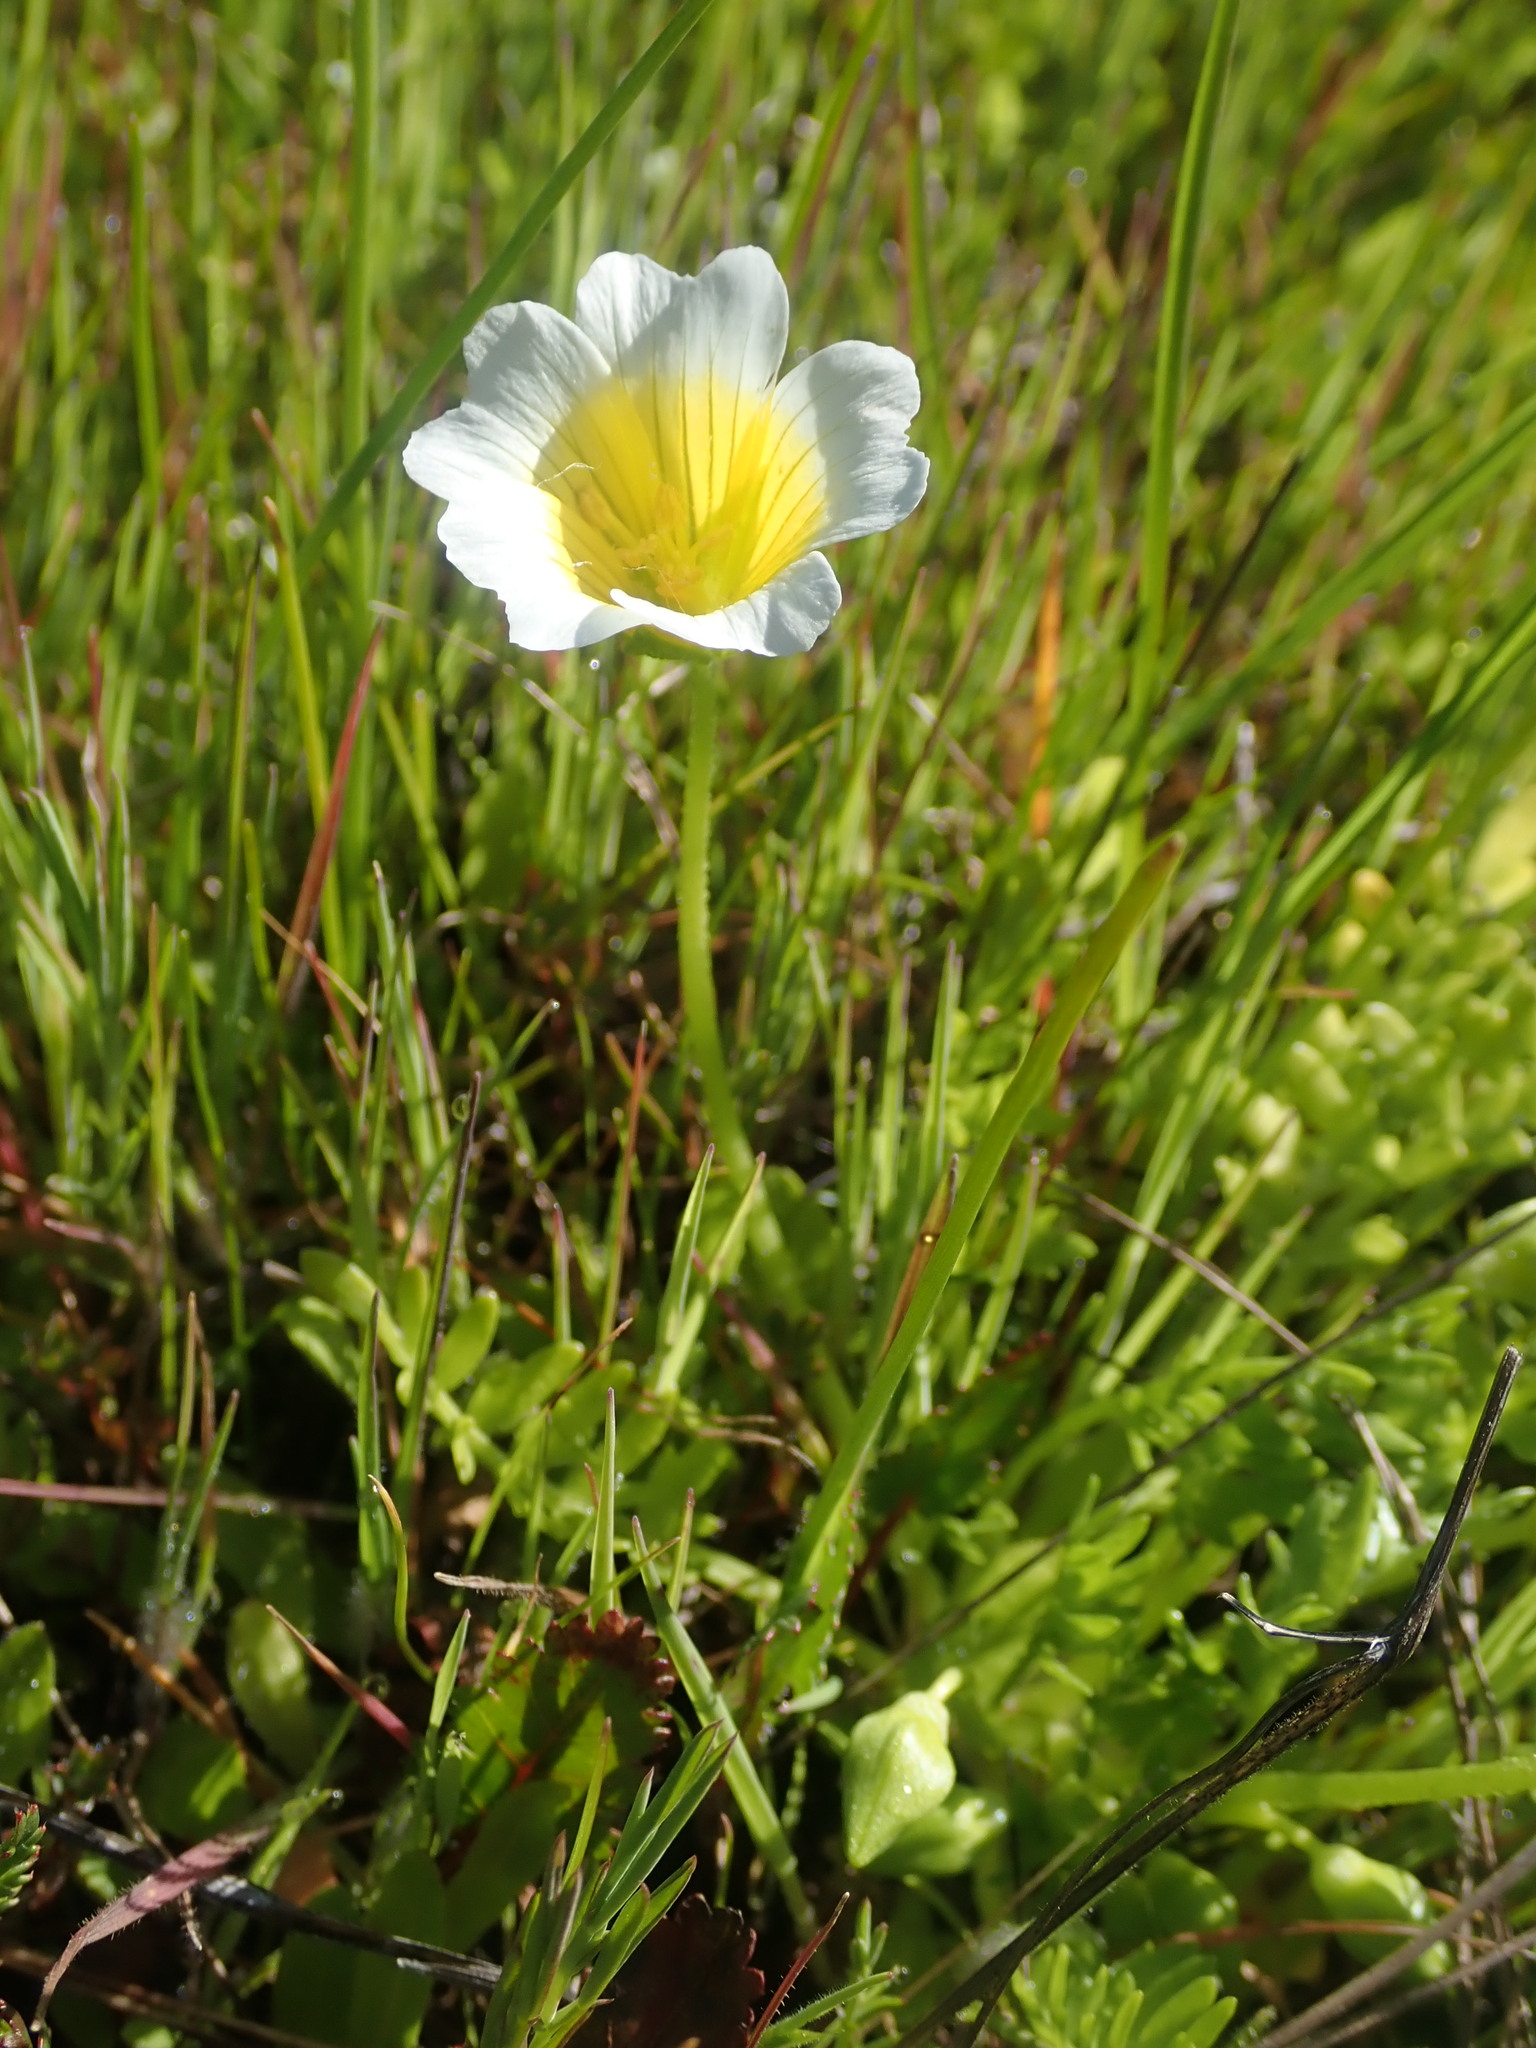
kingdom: Plantae
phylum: Tracheophyta
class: Magnoliopsida
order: Brassicales
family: Limnanthaceae
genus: Limnanthes
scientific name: Limnanthes douglasii
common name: Meadow-foam
